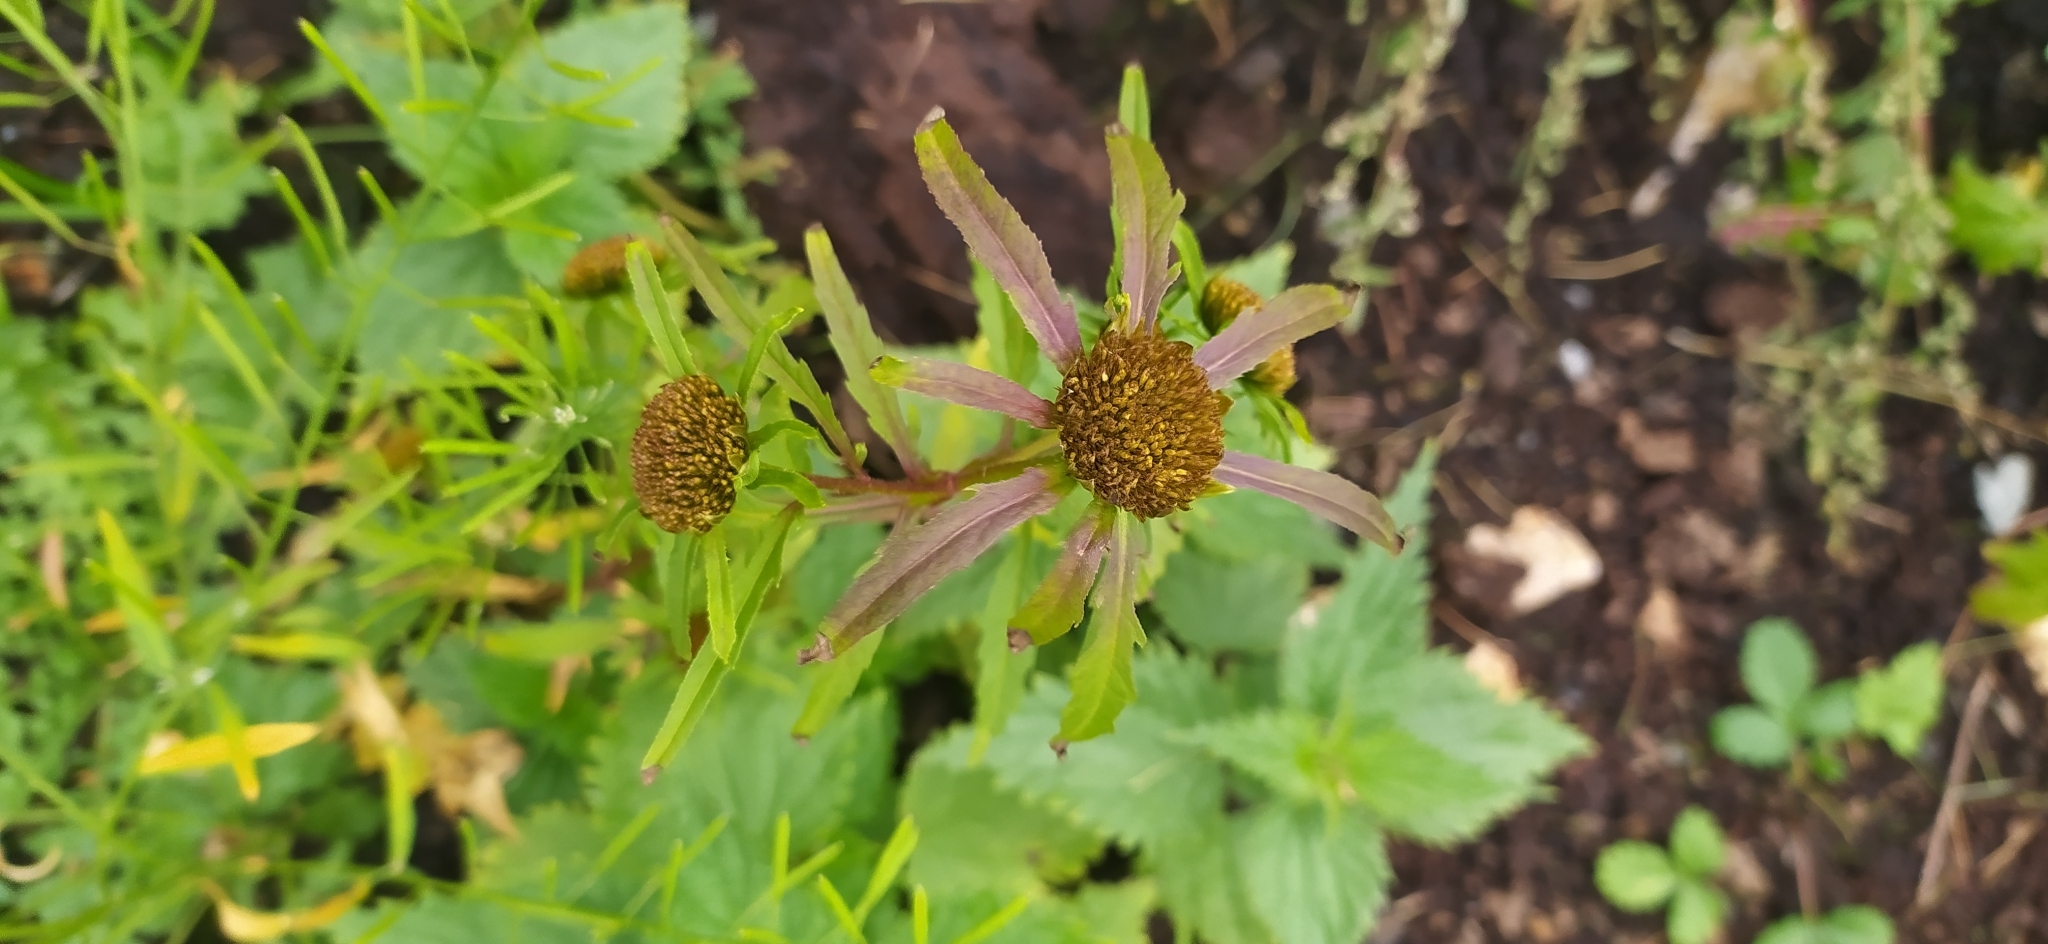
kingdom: Plantae
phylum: Tracheophyta
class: Magnoliopsida
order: Asterales
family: Asteraceae
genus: Bidens
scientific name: Bidens radiata
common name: Radiating bur-marigold
